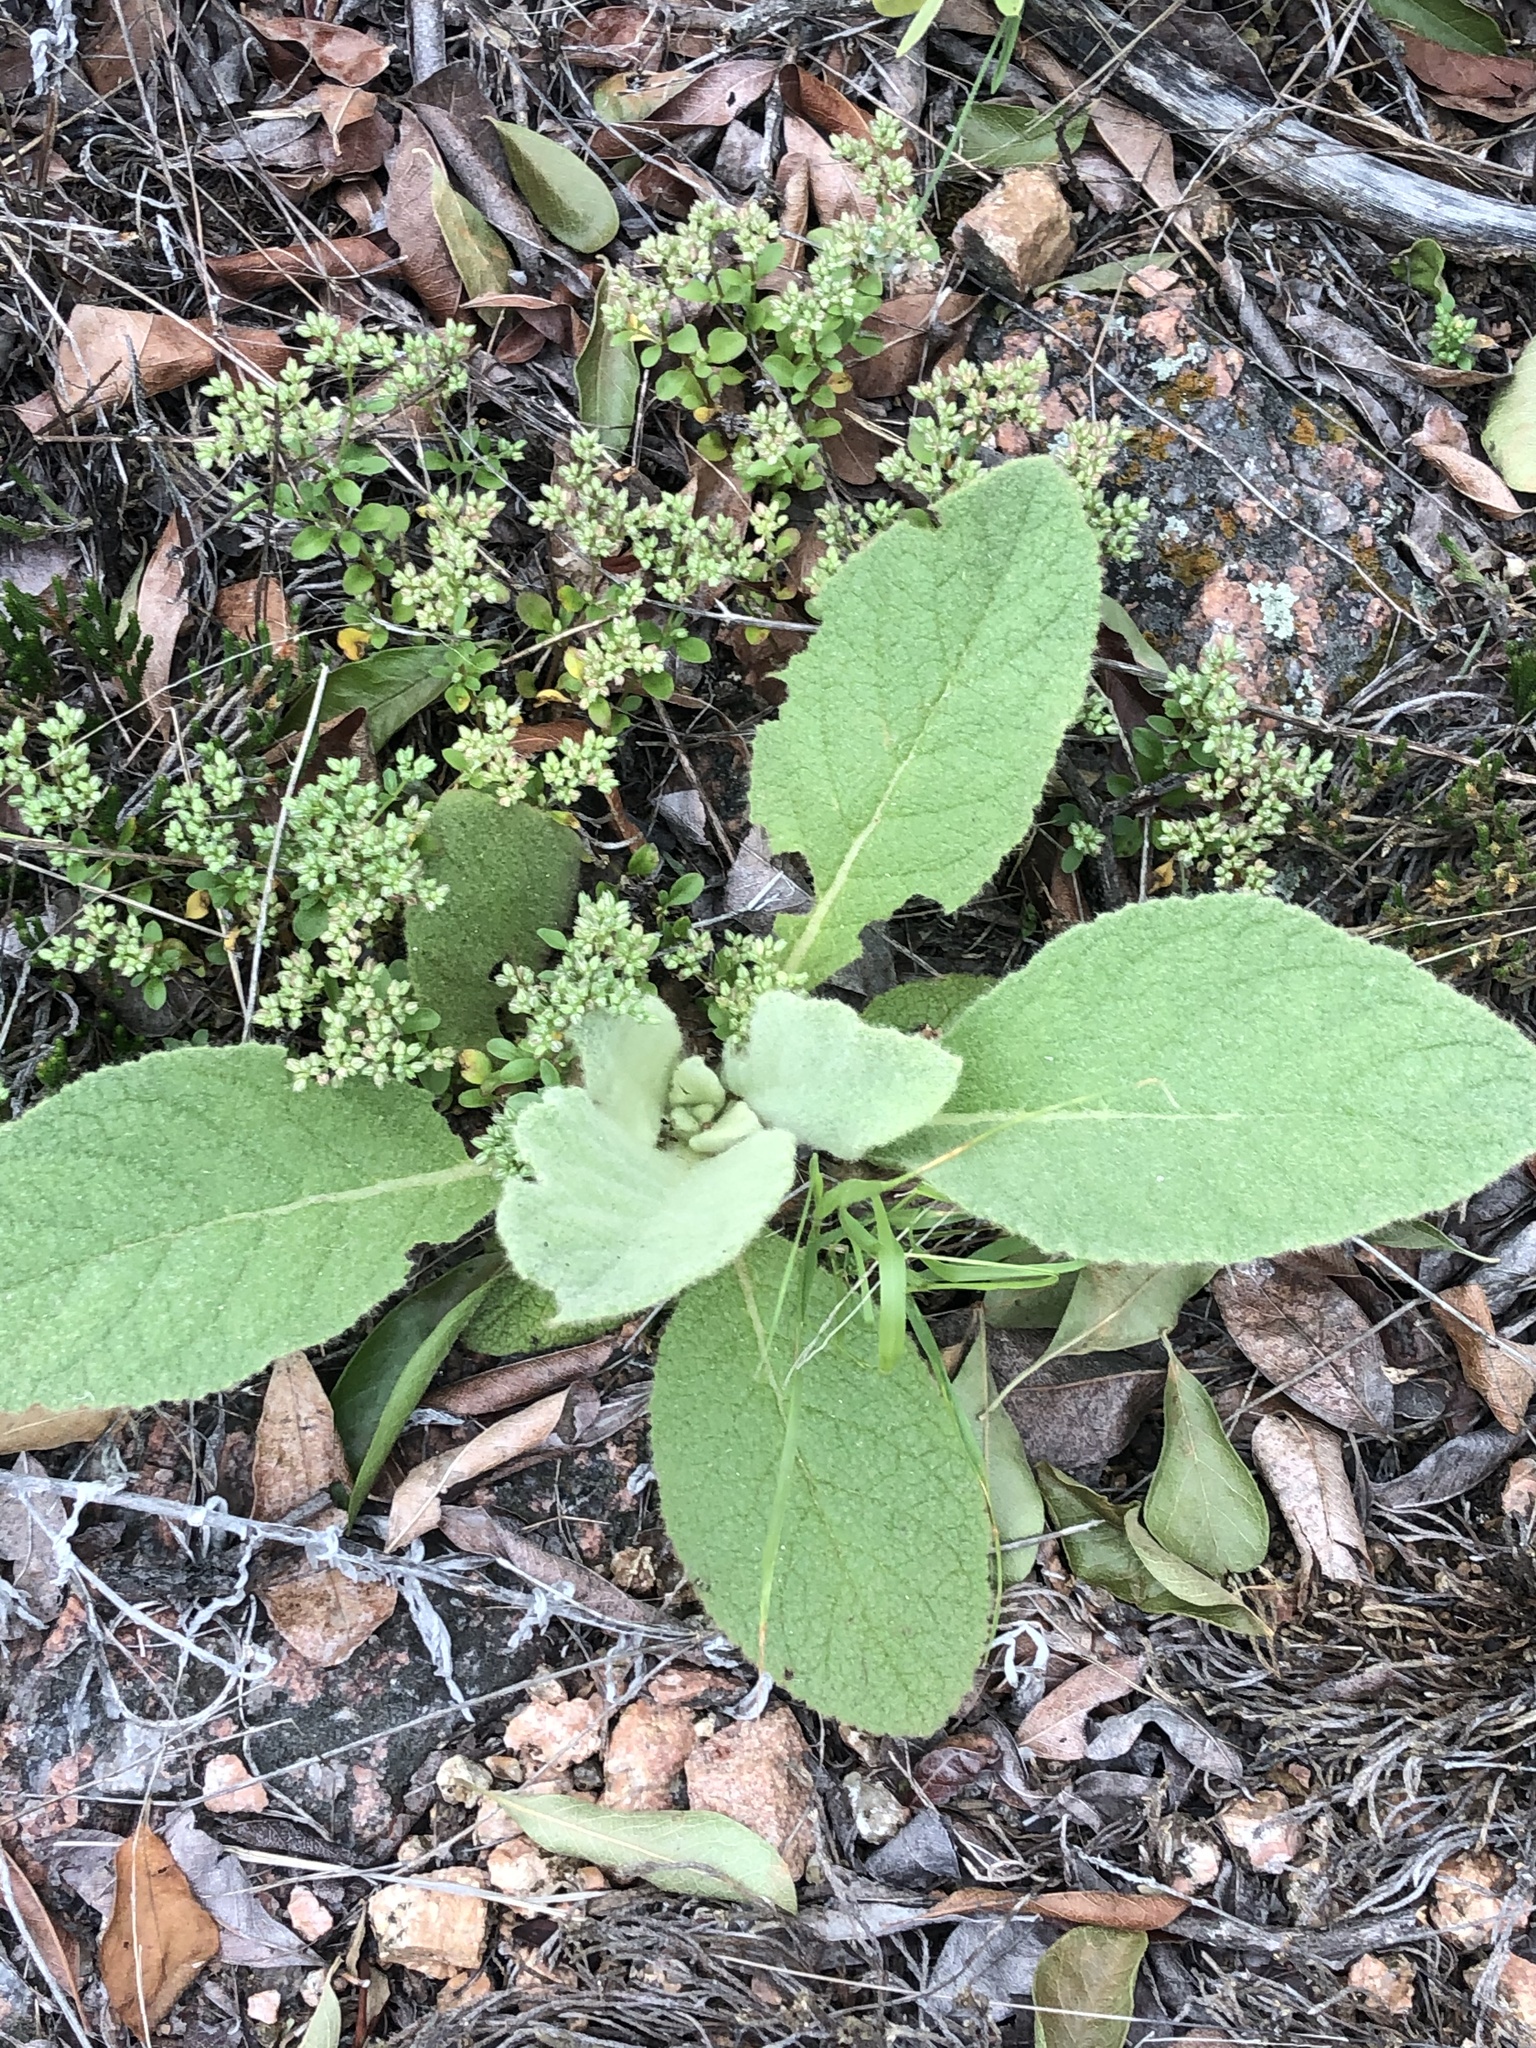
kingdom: Plantae
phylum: Tracheophyta
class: Magnoliopsida
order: Lamiales
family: Scrophulariaceae
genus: Verbascum
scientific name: Verbascum thapsus
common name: Common mullein
